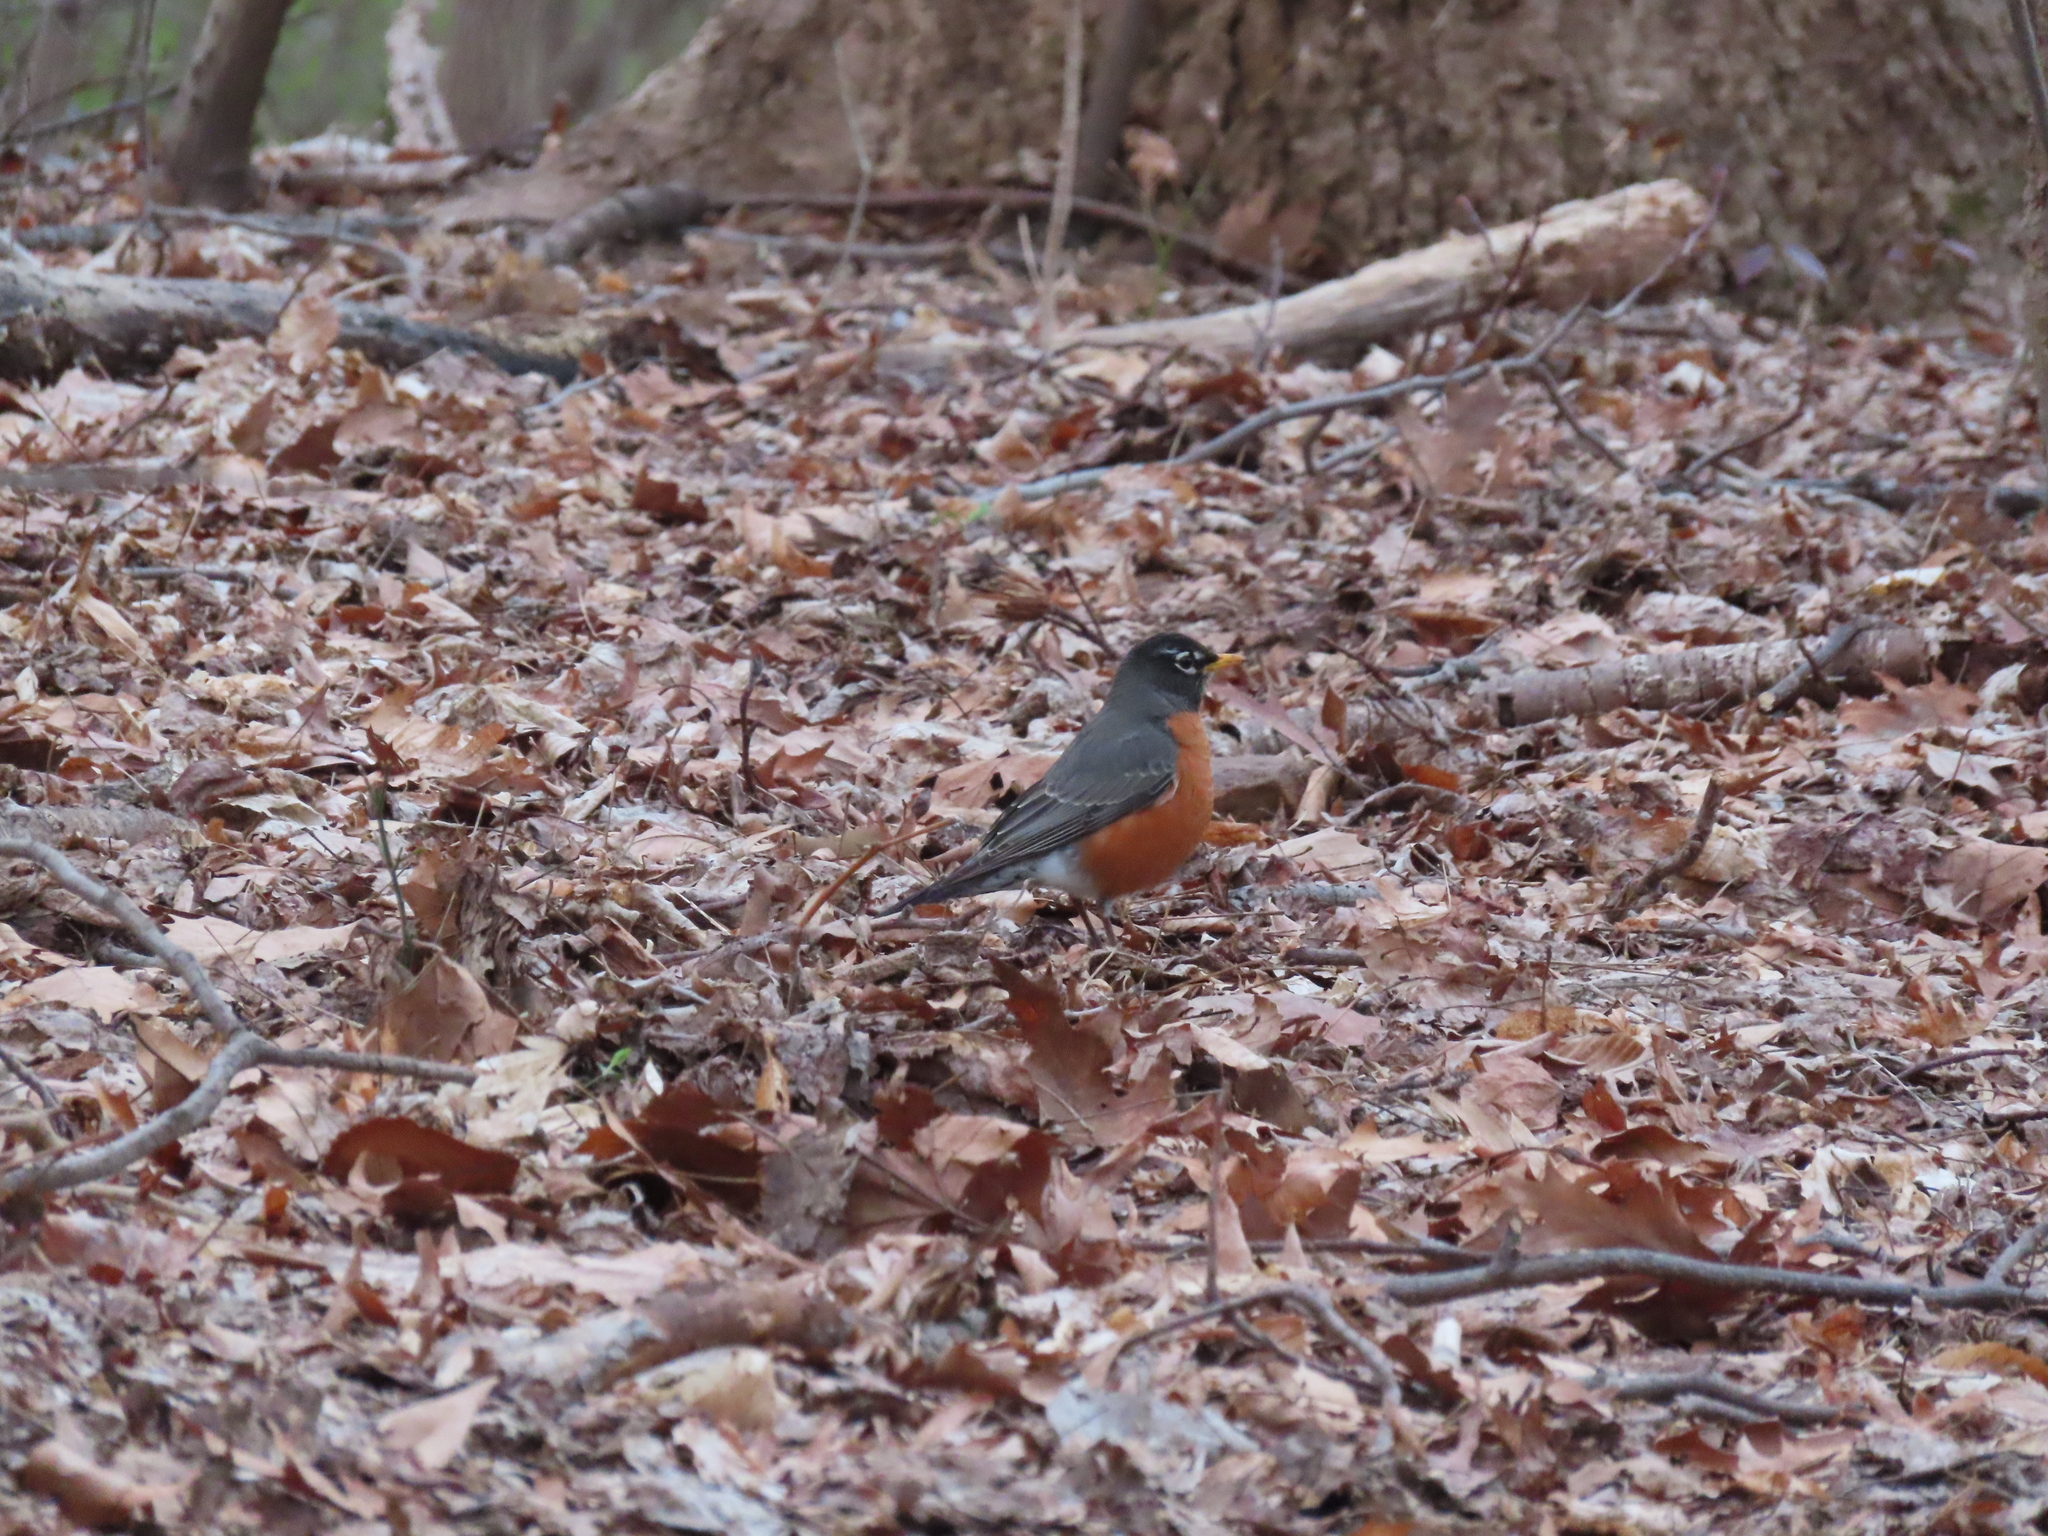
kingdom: Animalia
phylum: Chordata
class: Aves
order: Passeriformes
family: Turdidae
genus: Turdus
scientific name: Turdus migratorius
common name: American robin
